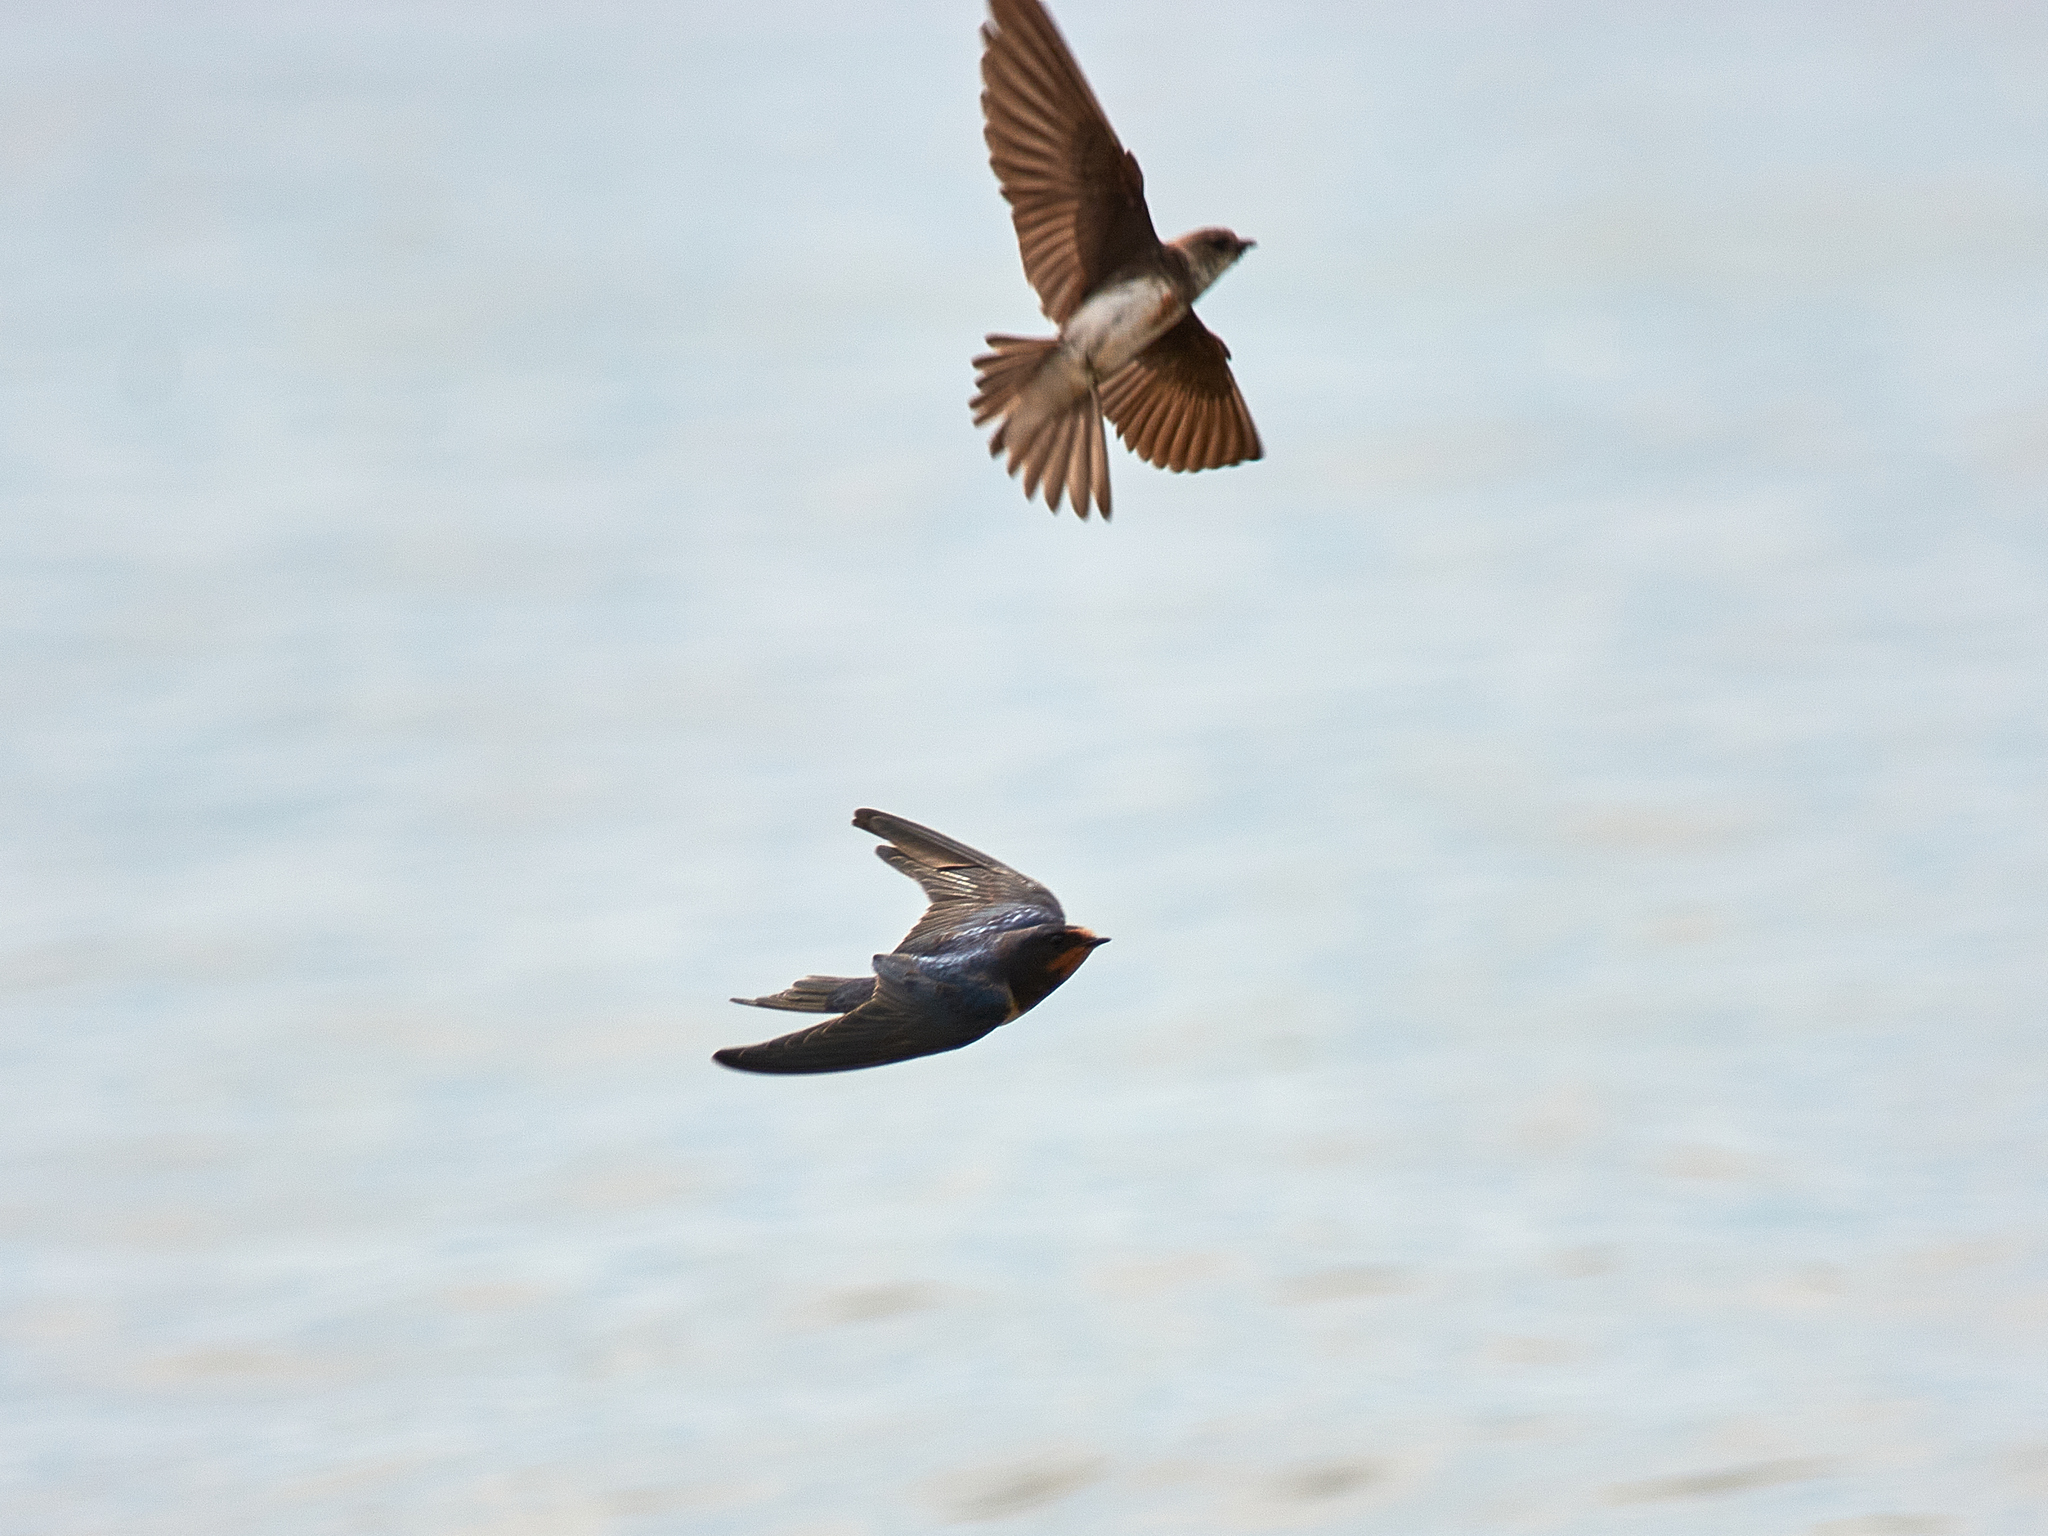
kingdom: Animalia
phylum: Chordata
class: Aves
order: Passeriformes
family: Hirundinidae
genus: Hirundo
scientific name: Hirundo rustica
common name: Barn swallow
